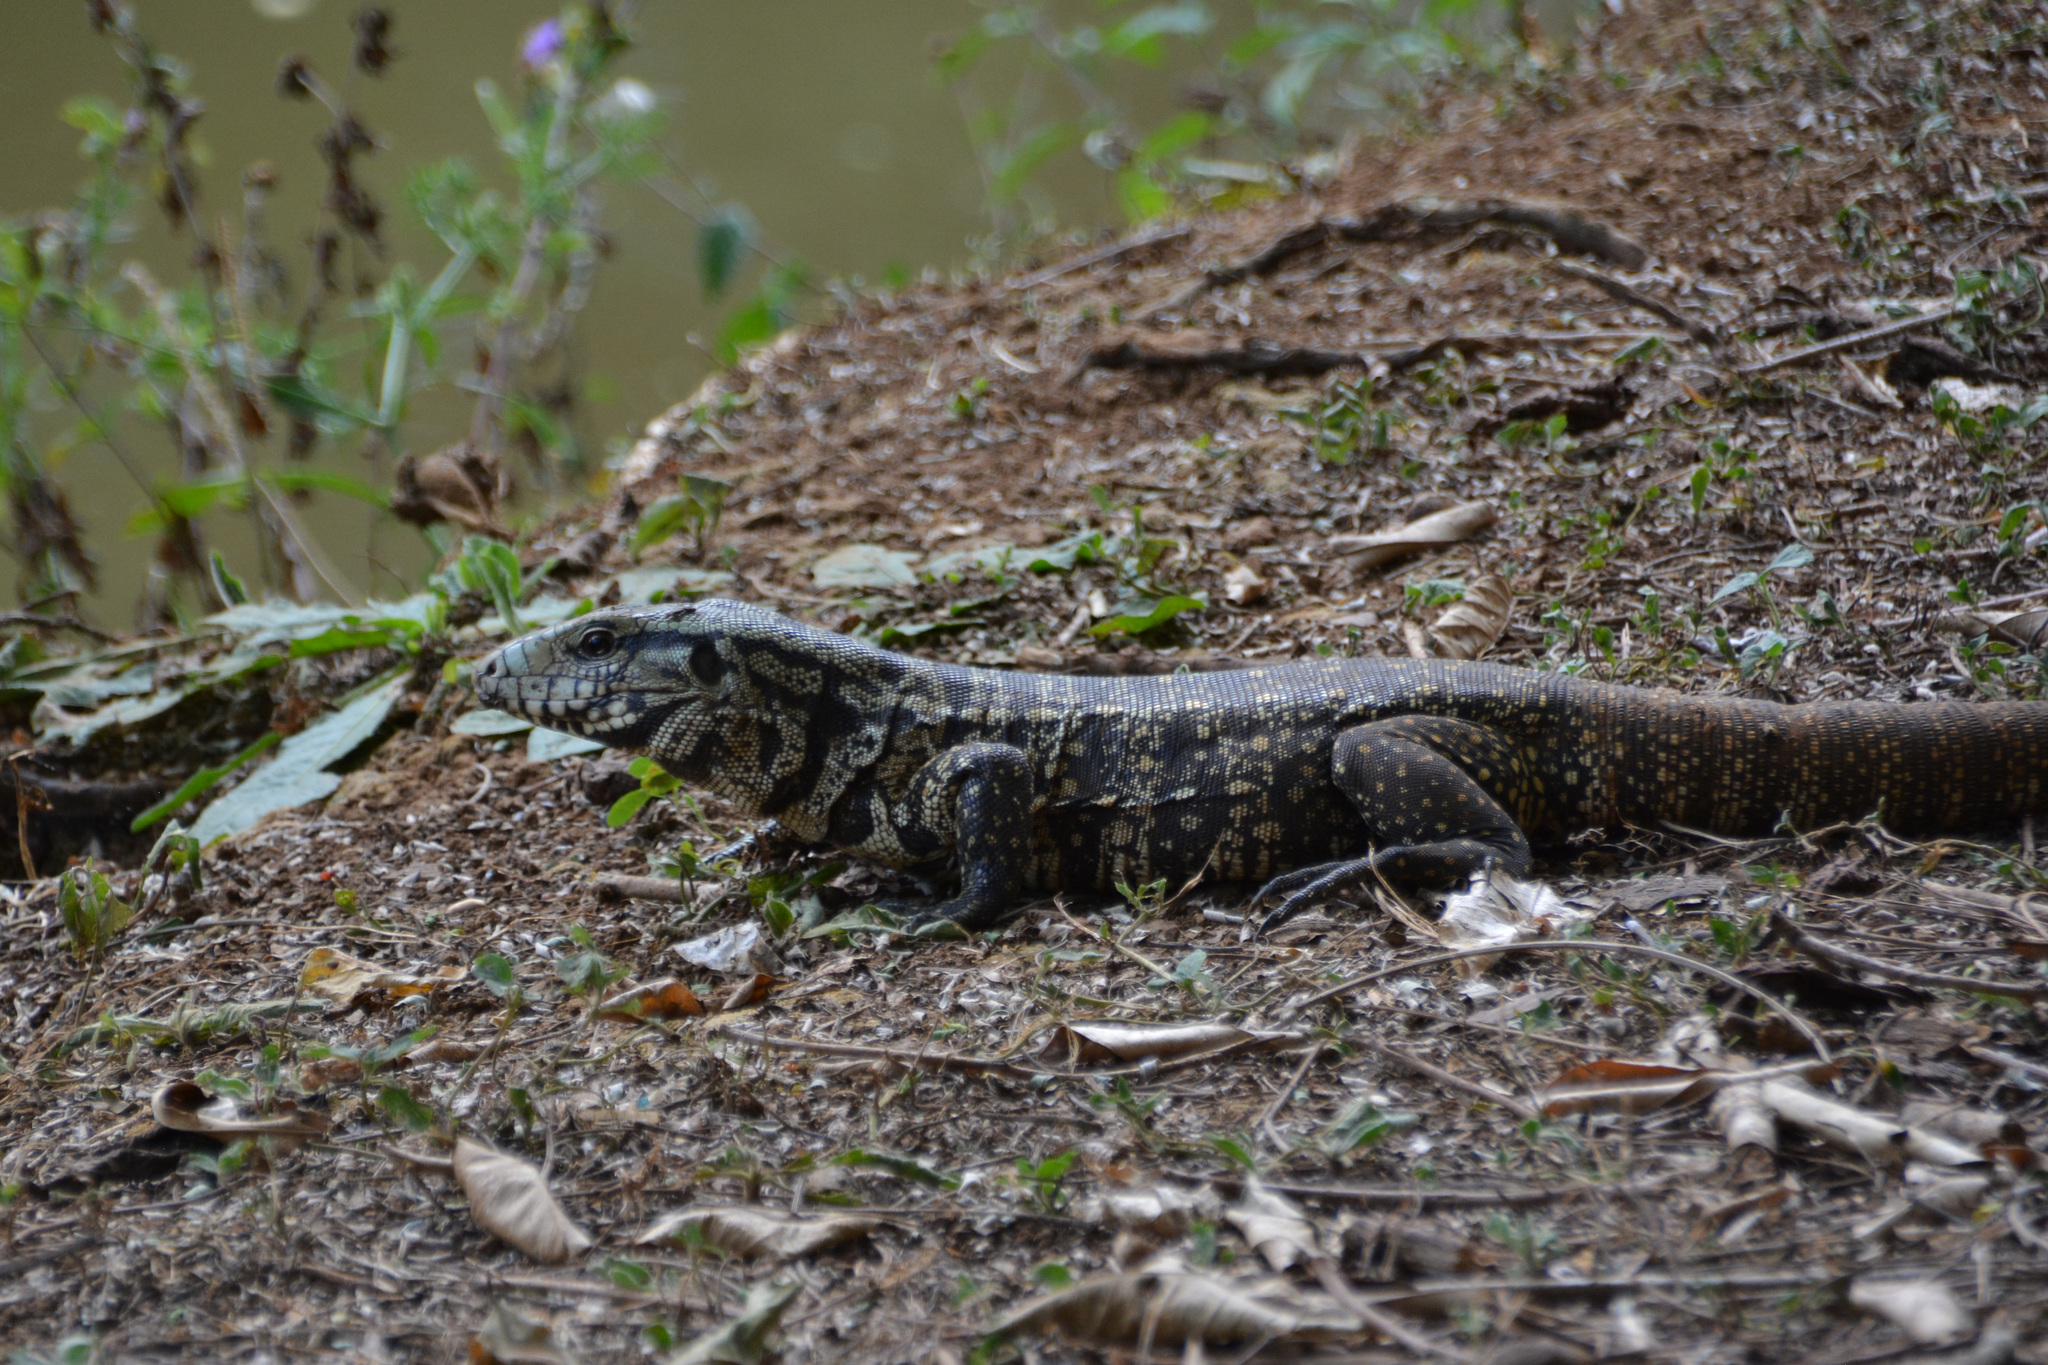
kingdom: Animalia
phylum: Chordata
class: Squamata
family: Teiidae
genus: Salvator
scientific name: Salvator merianae
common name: Argentine black and white tegu
